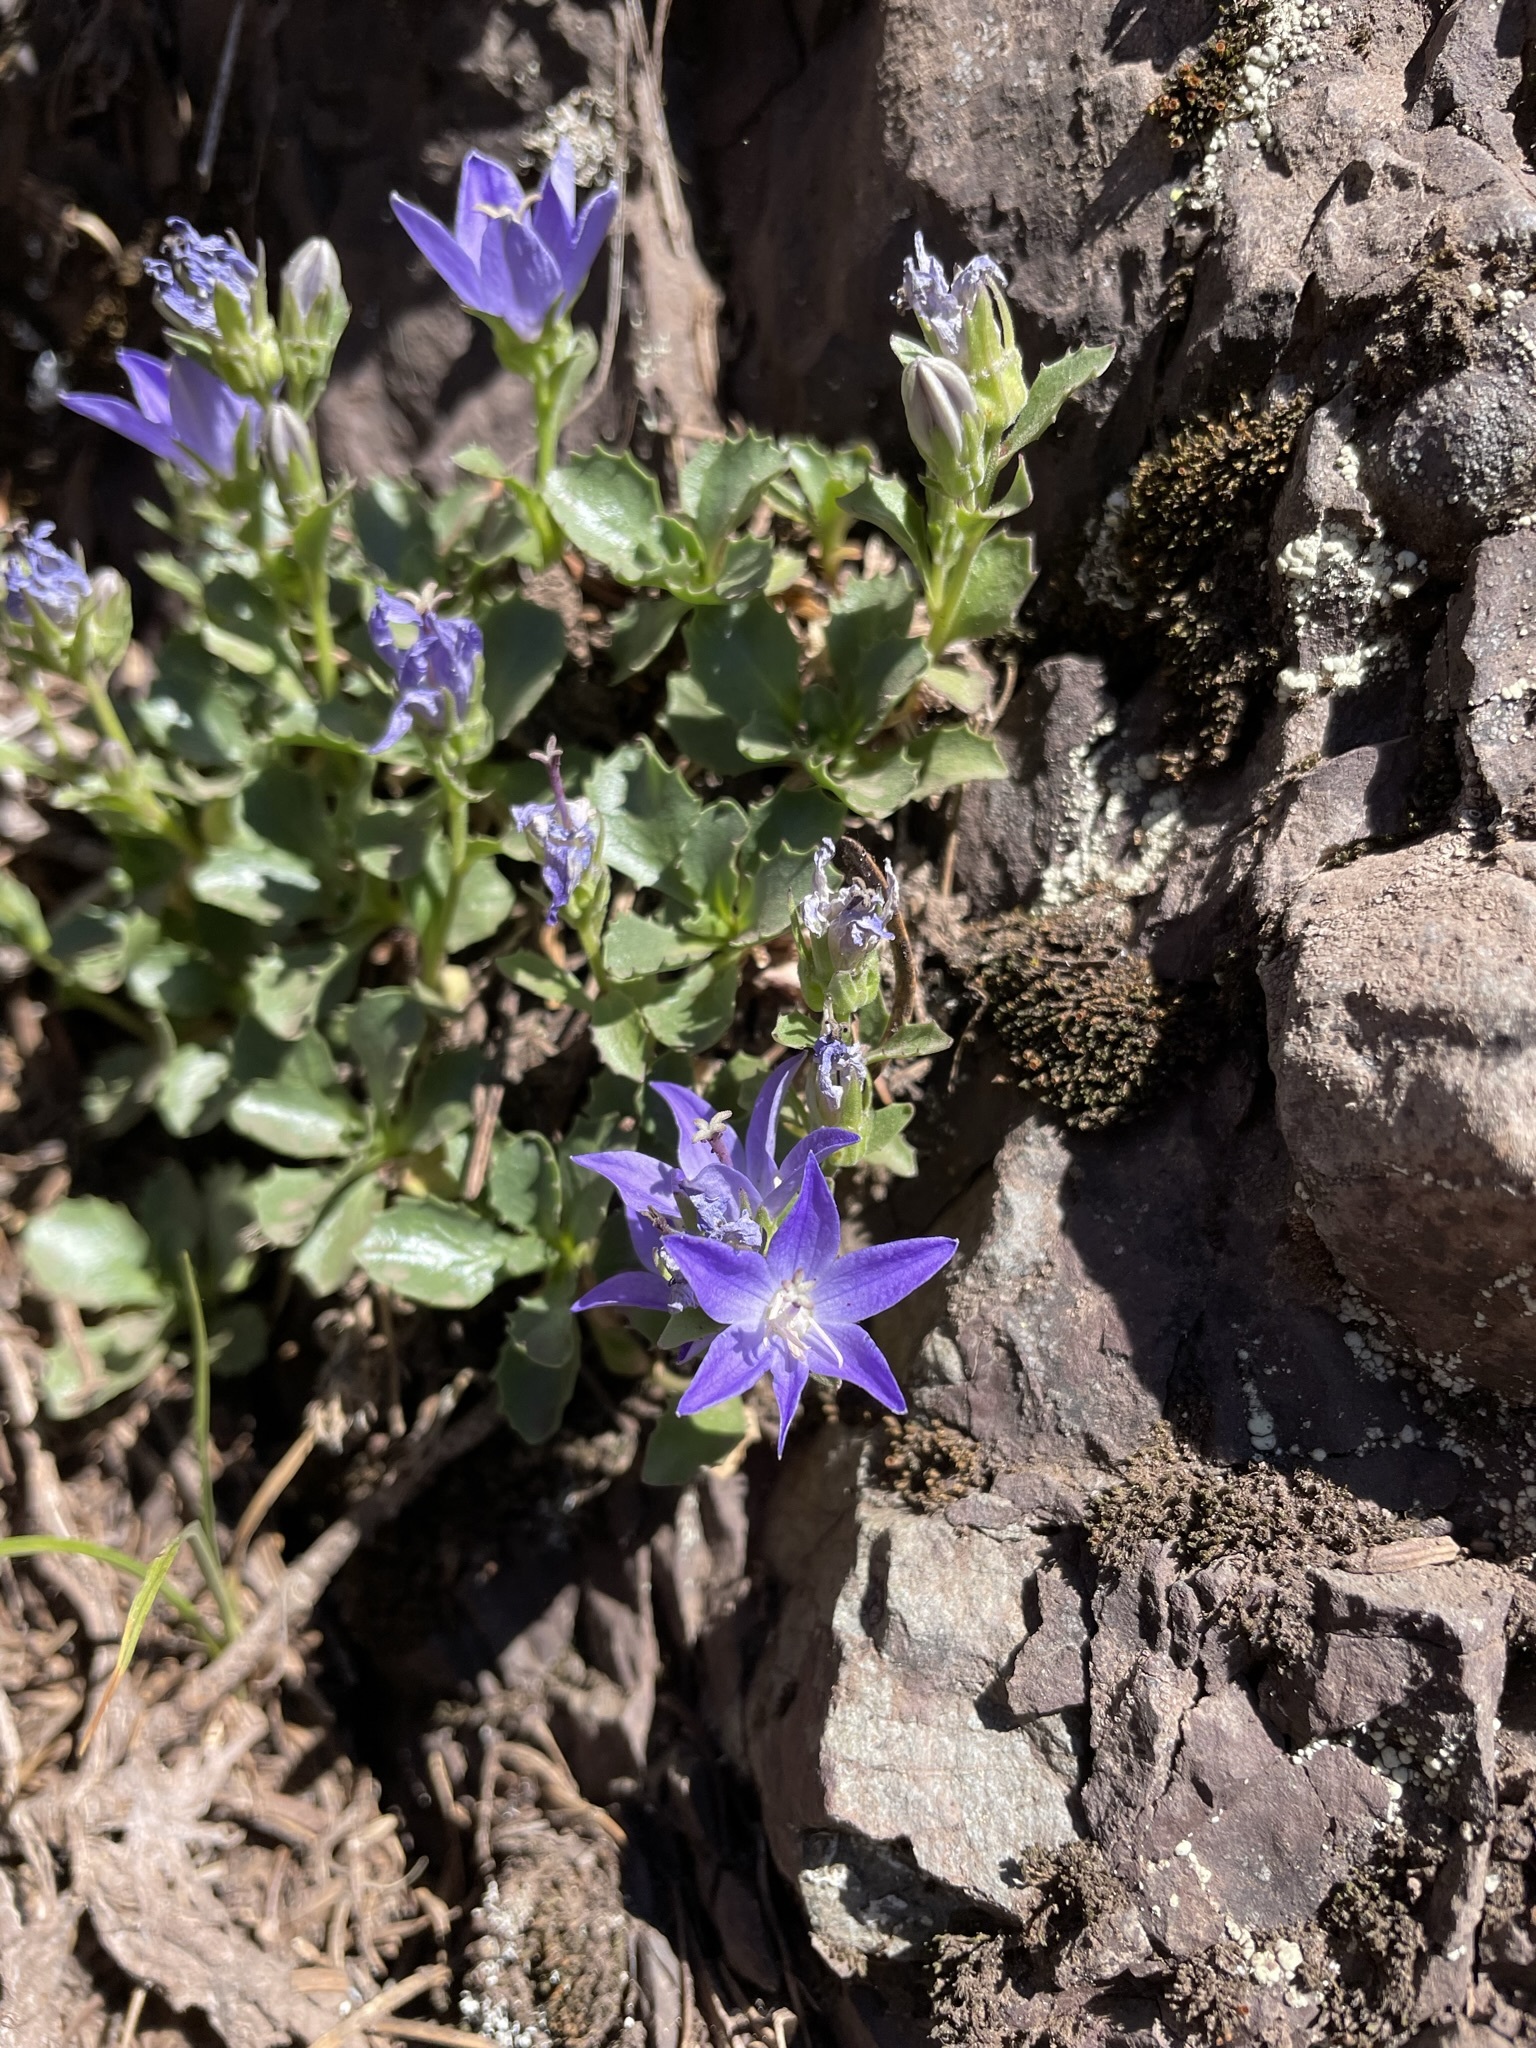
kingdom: Plantae
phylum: Tracheophyta
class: Magnoliopsida
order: Asterales
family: Campanulaceae
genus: Campanula
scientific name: Campanula piperi
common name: Olympic bellflower
